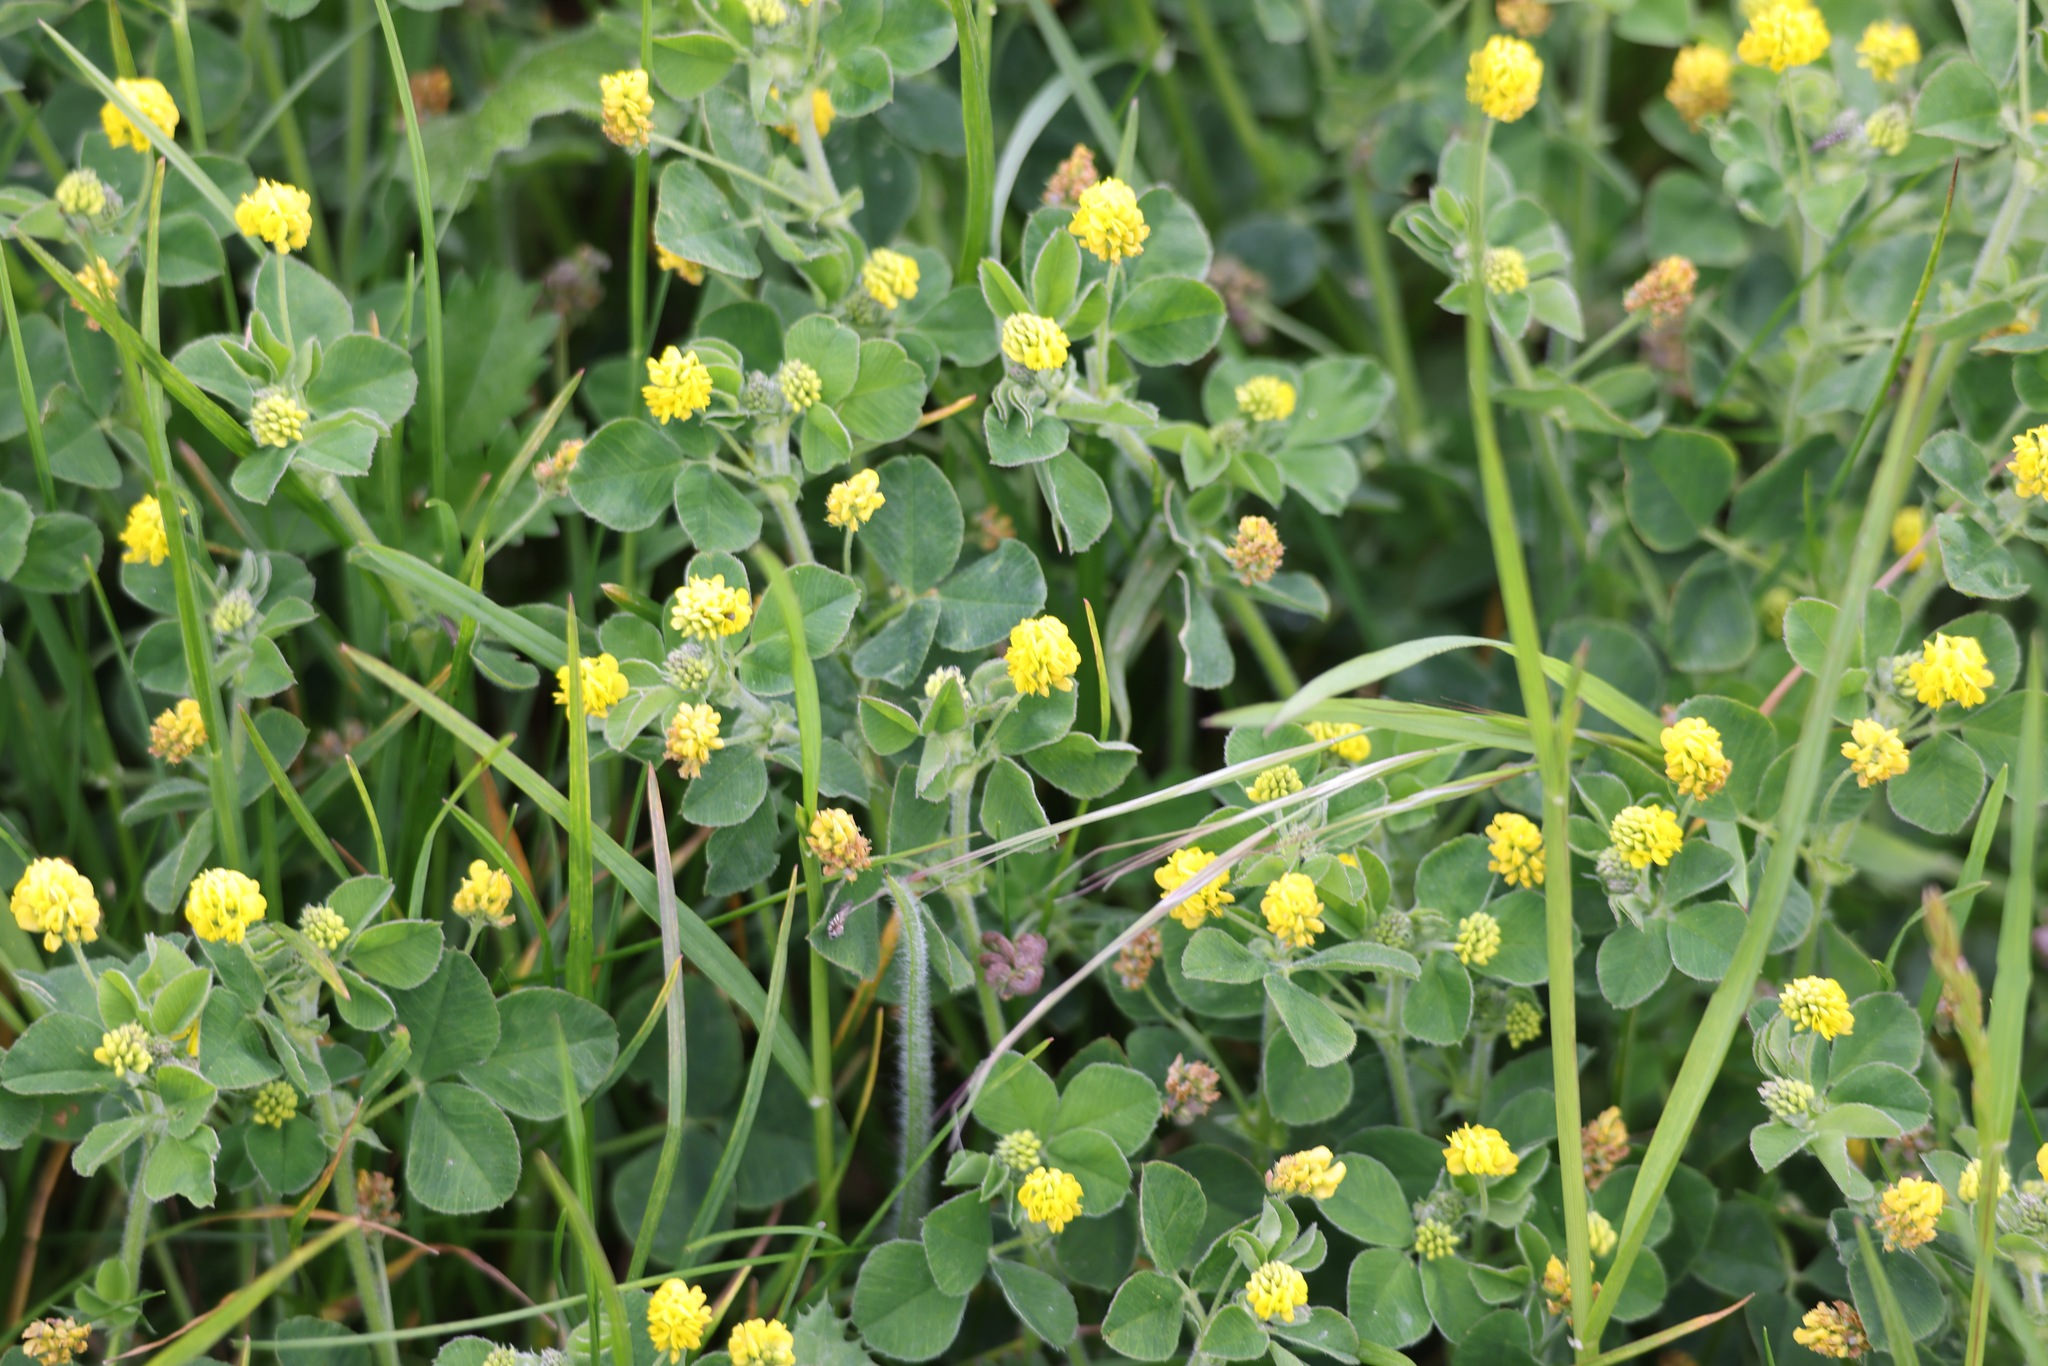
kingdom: Plantae
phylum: Tracheophyta
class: Magnoliopsida
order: Fabales
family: Fabaceae
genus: Medicago
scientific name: Medicago lupulina
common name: Black medick
